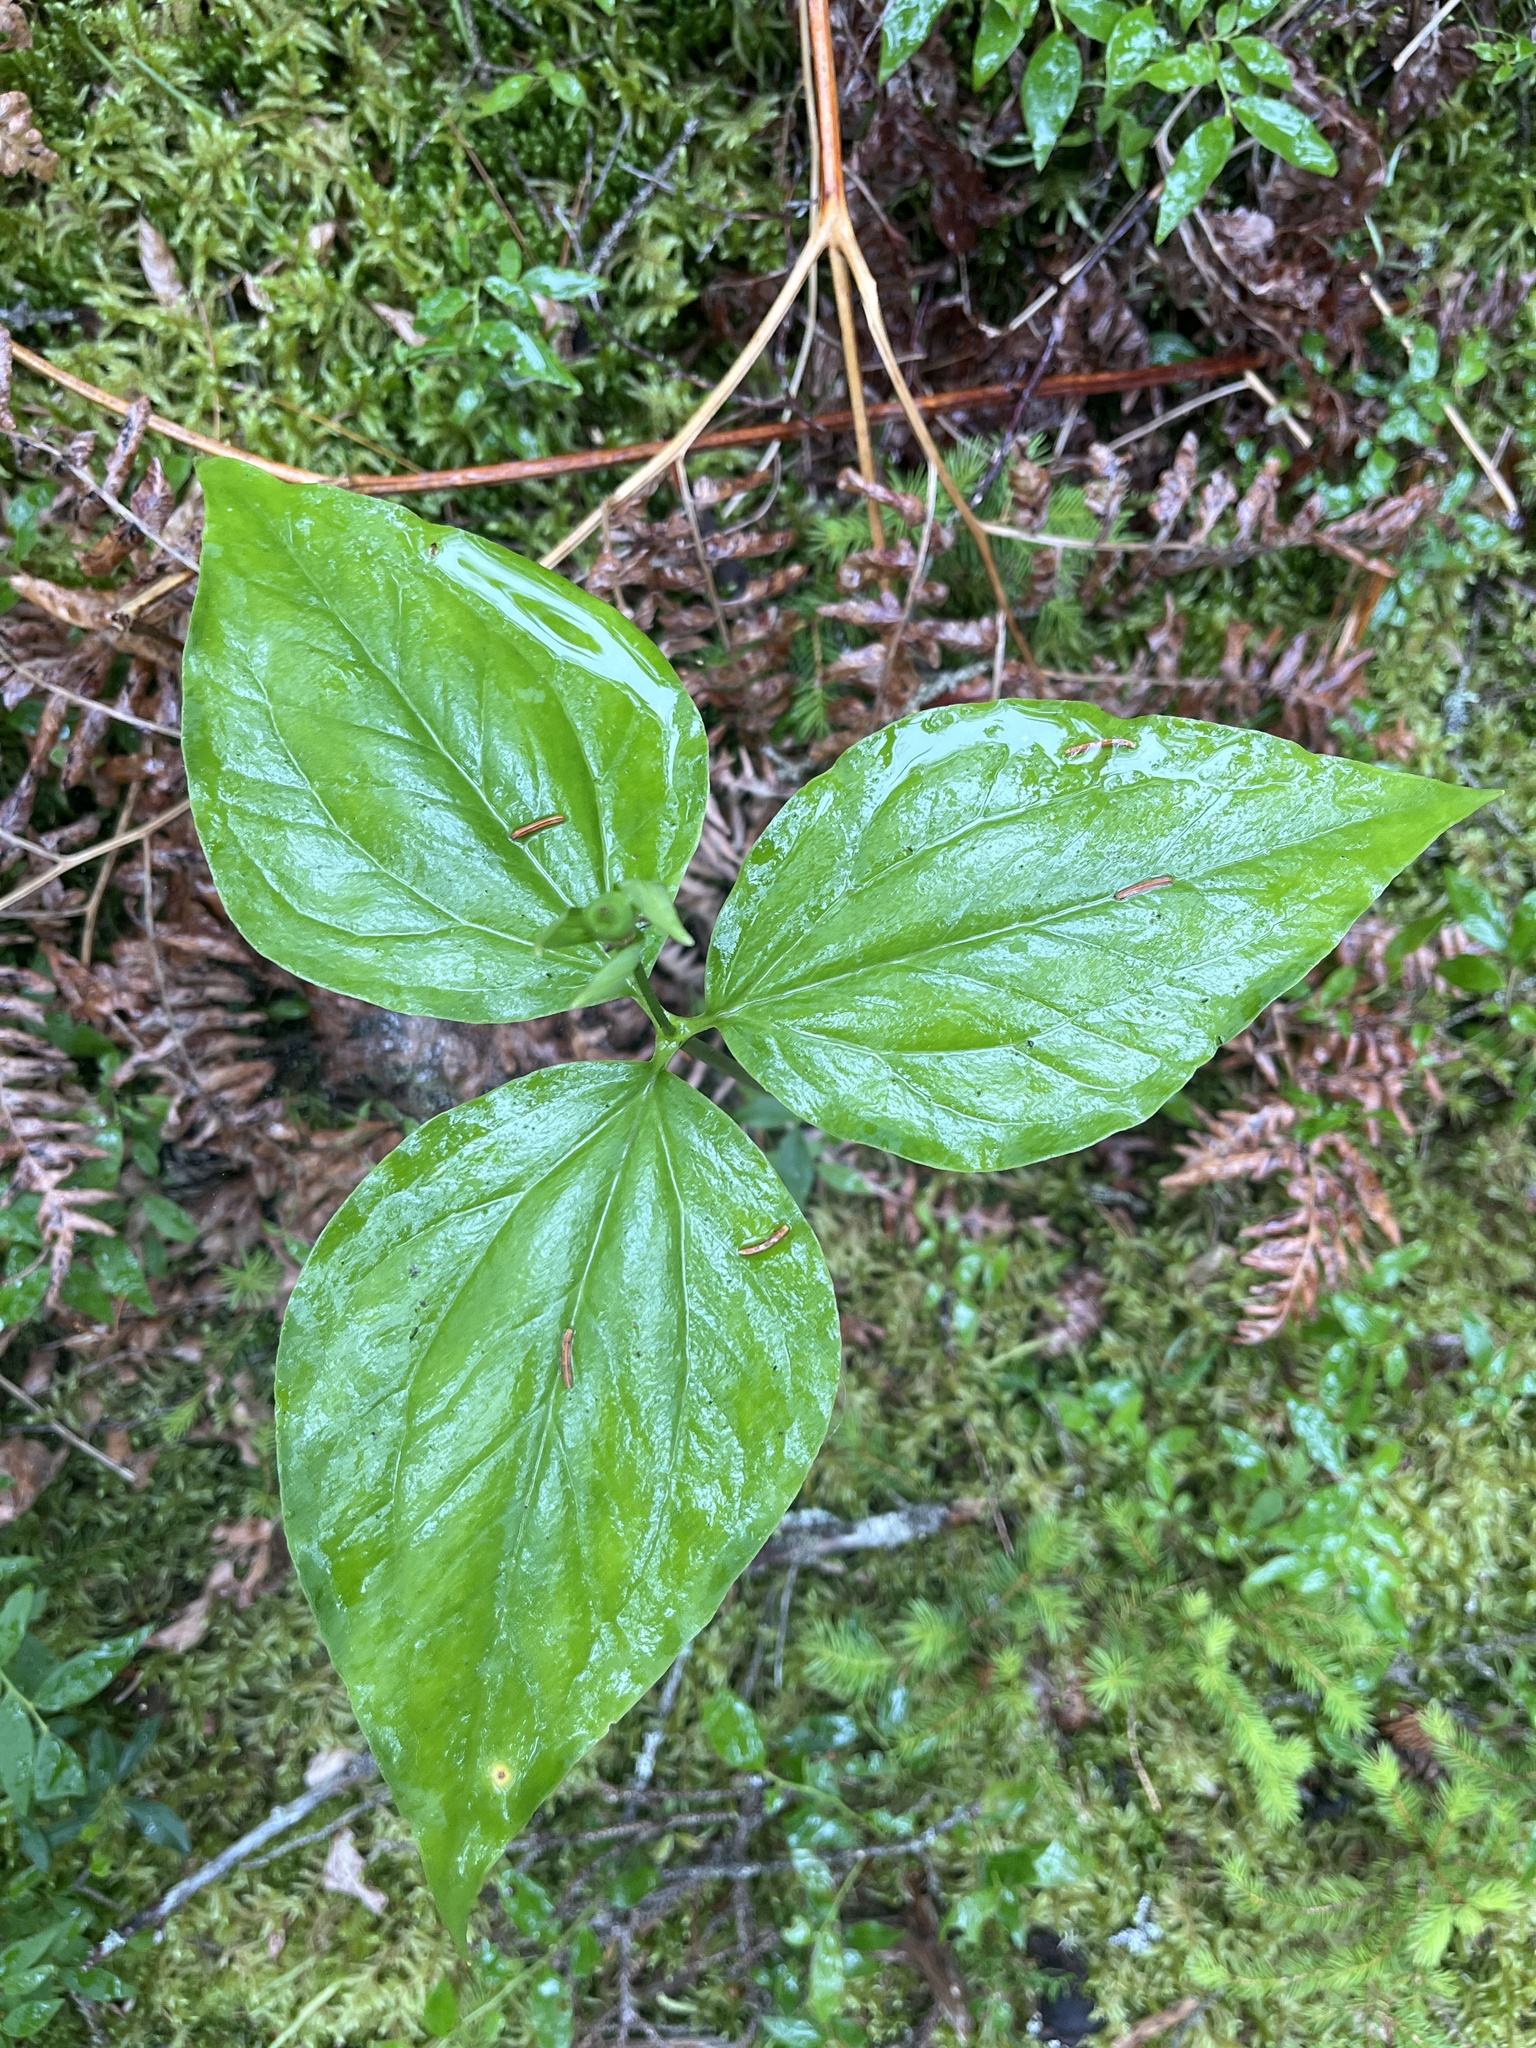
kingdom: Plantae
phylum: Tracheophyta
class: Liliopsida
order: Liliales
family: Melanthiaceae
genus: Trillium
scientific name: Trillium undulatum
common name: Paint trillium
